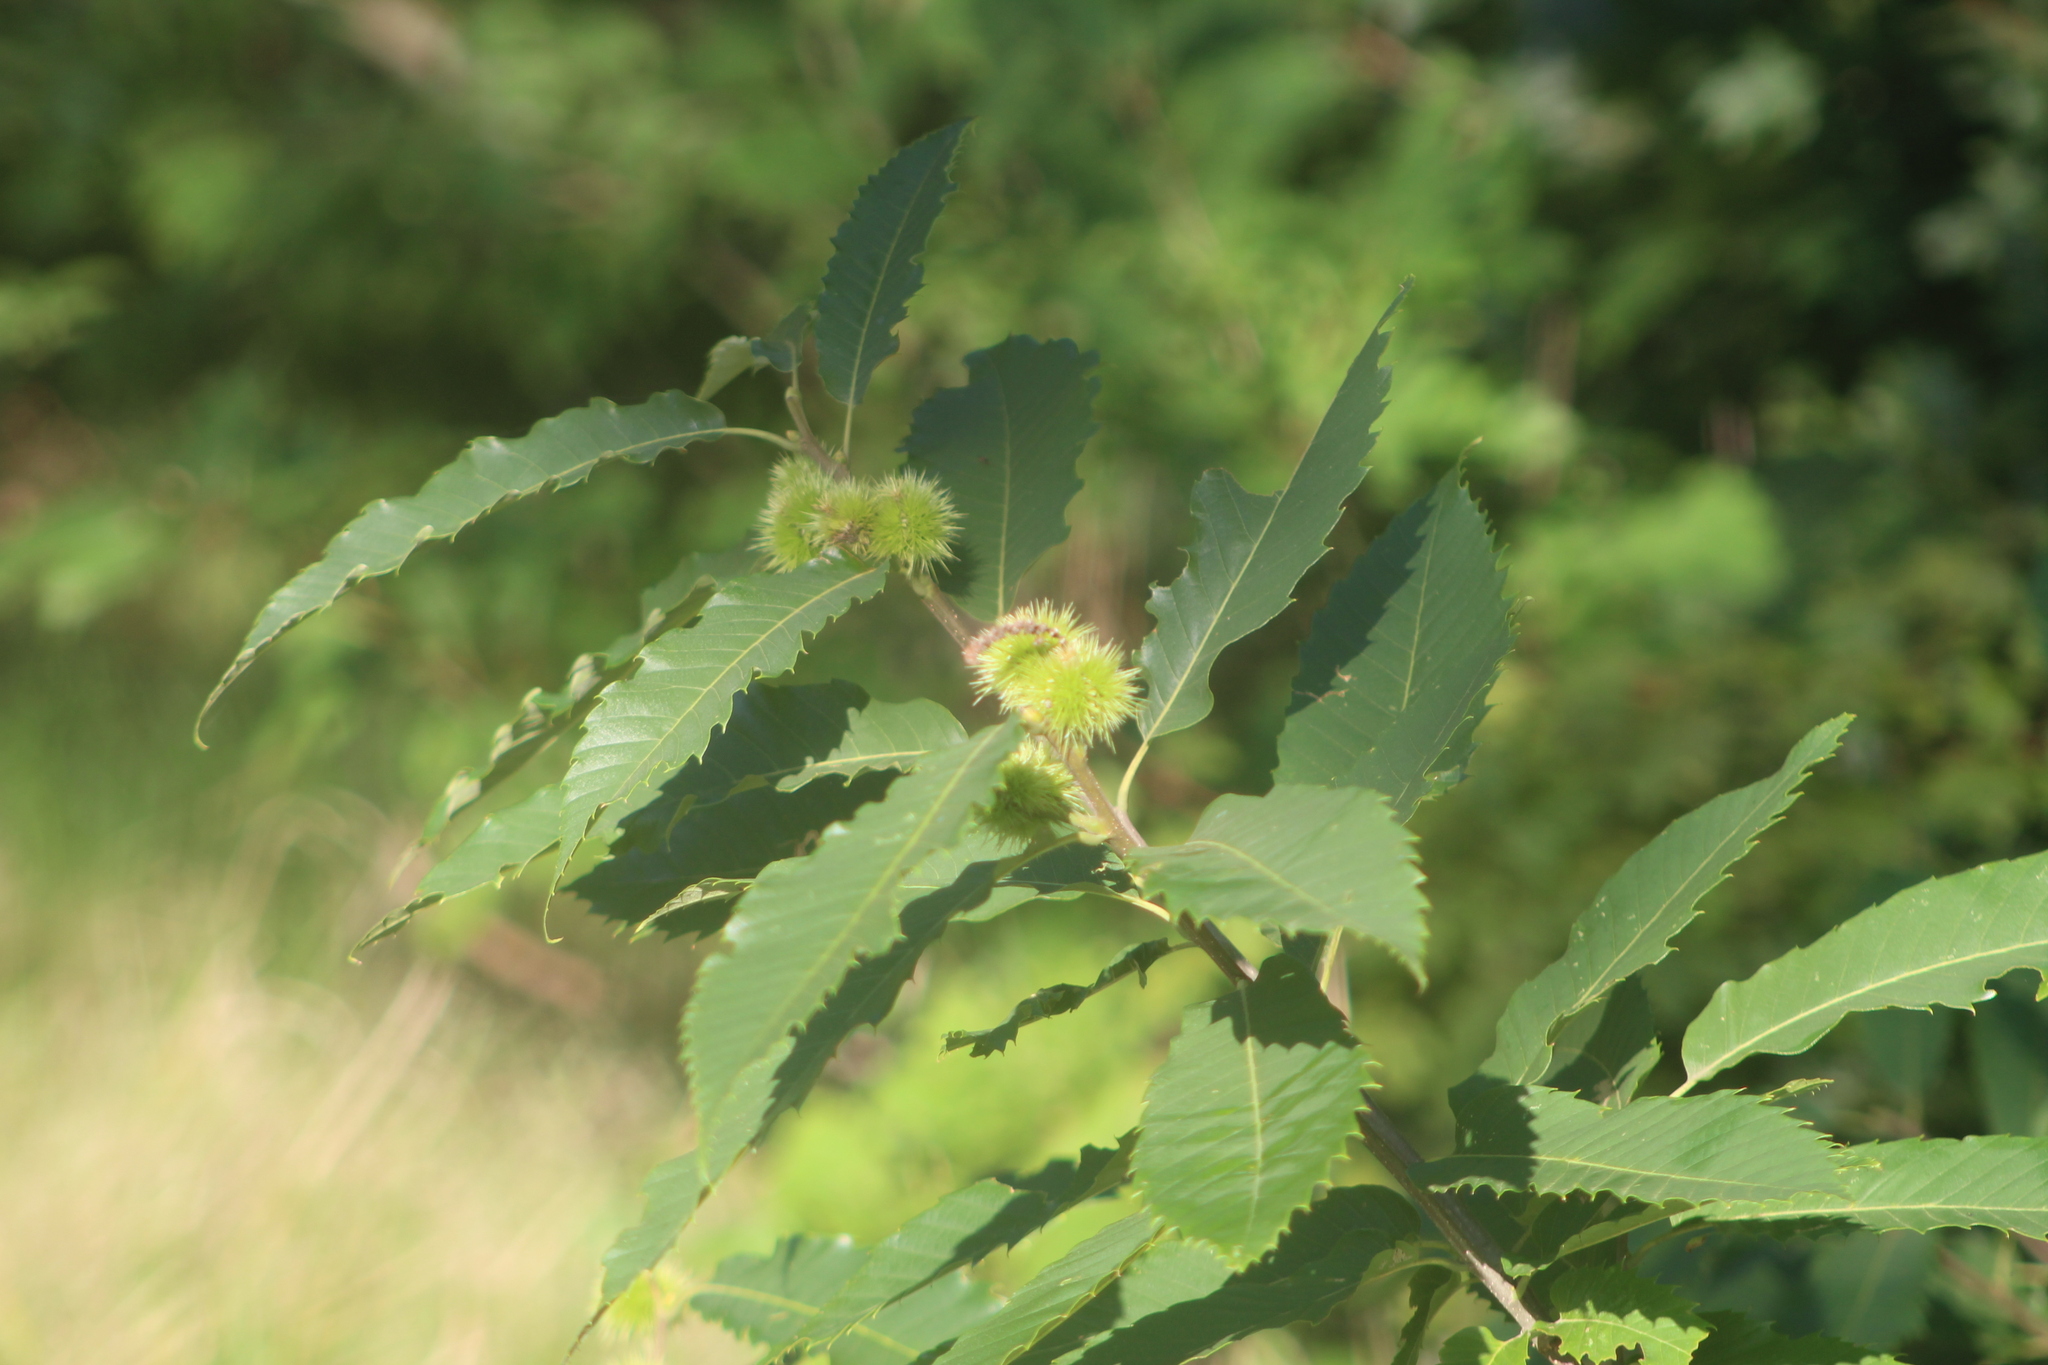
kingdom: Plantae
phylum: Tracheophyta
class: Magnoliopsida
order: Fagales
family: Fagaceae
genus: Castanea
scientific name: Castanea sativa
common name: Sweet chestnut
